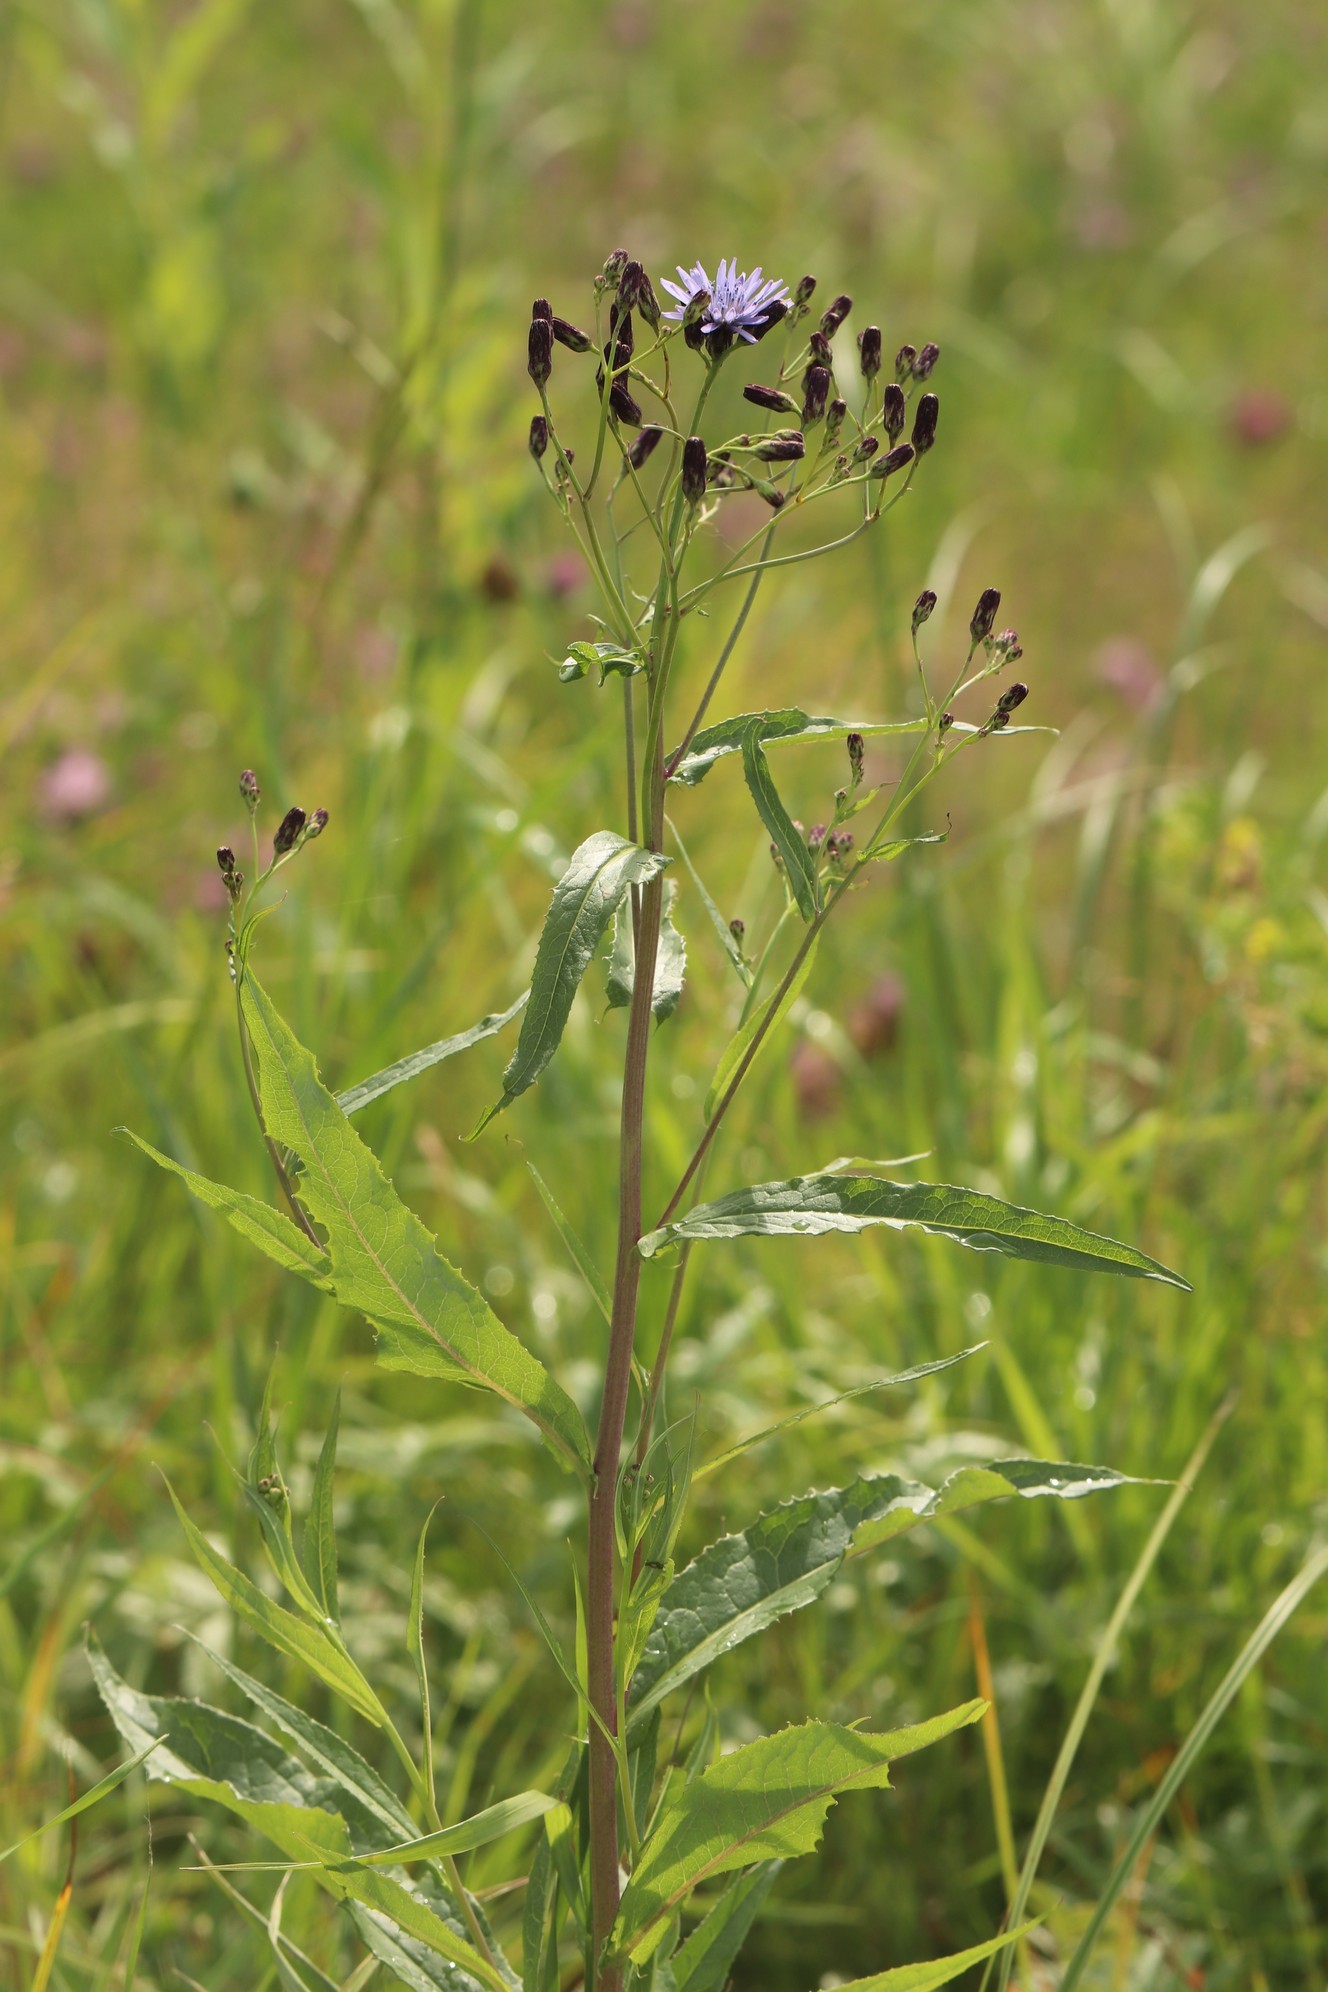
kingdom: Plantae
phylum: Tracheophyta
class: Magnoliopsida
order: Asterales
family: Asteraceae
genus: Lactuca
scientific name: Lactuca sibirica
